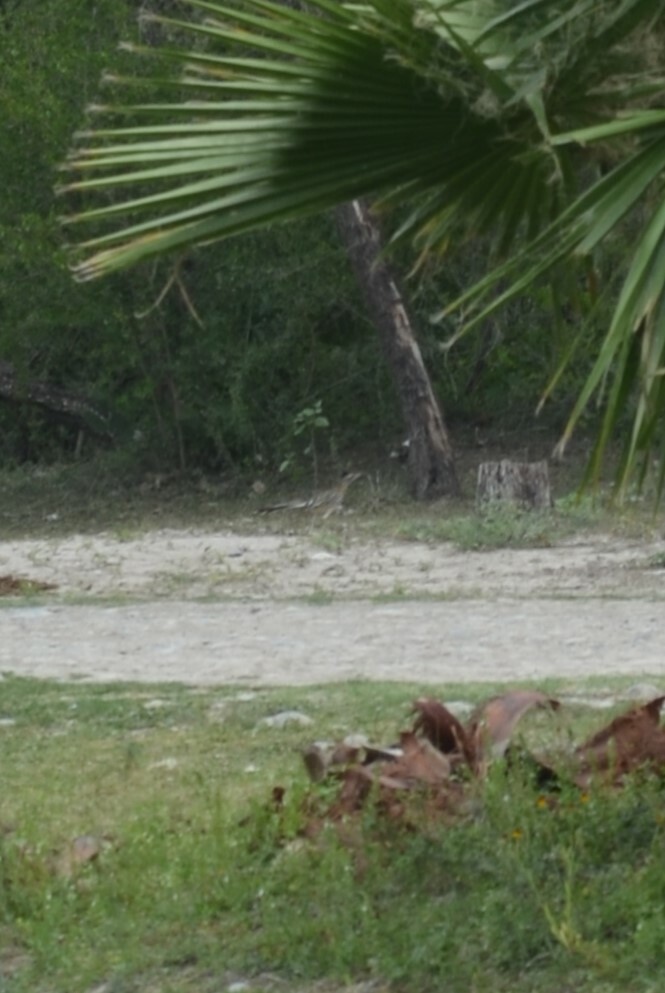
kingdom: Animalia
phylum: Chordata
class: Aves
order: Cuculiformes
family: Cuculidae
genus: Geococcyx
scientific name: Geococcyx californianus
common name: Greater roadrunner
